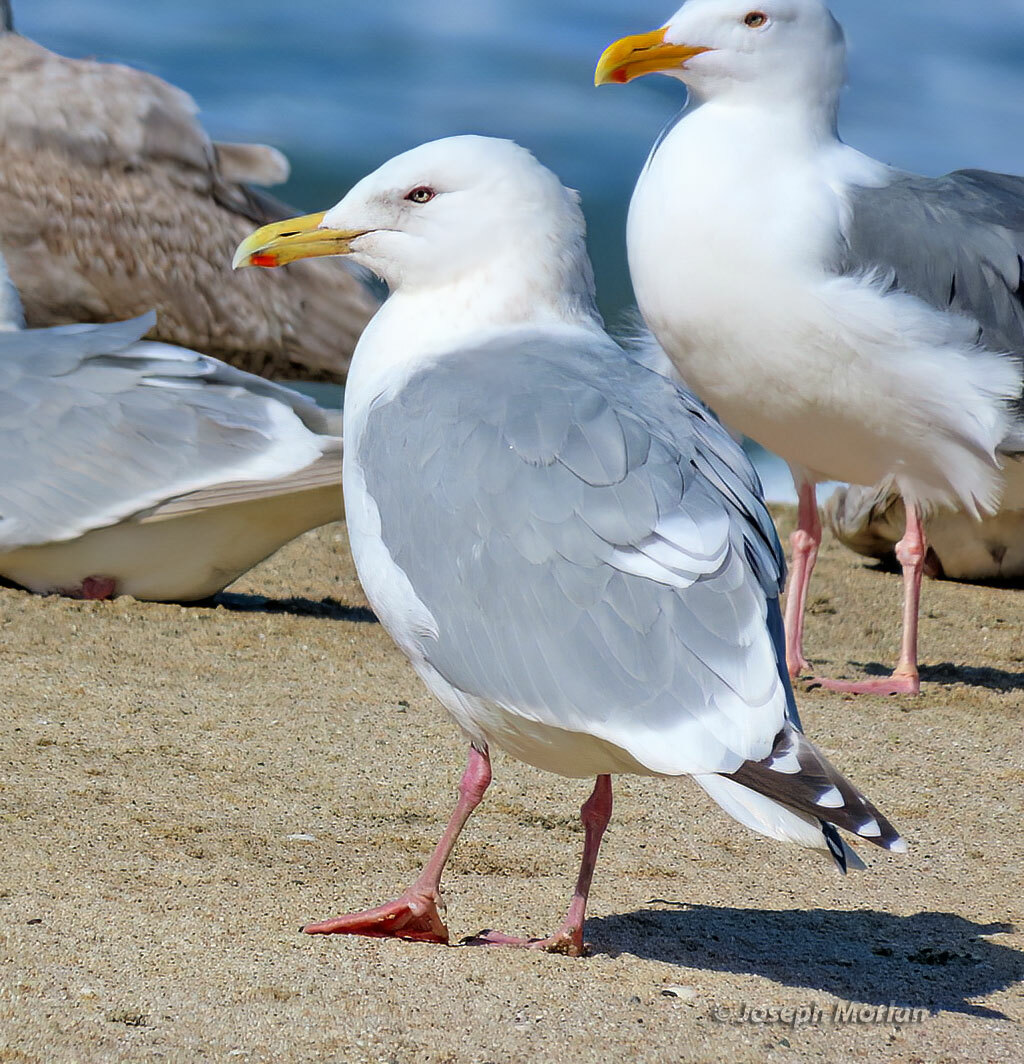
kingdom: Animalia
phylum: Chordata
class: Aves
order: Charadriiformes
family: Laridae
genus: Larus
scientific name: Larus argentatus
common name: Herring gull
